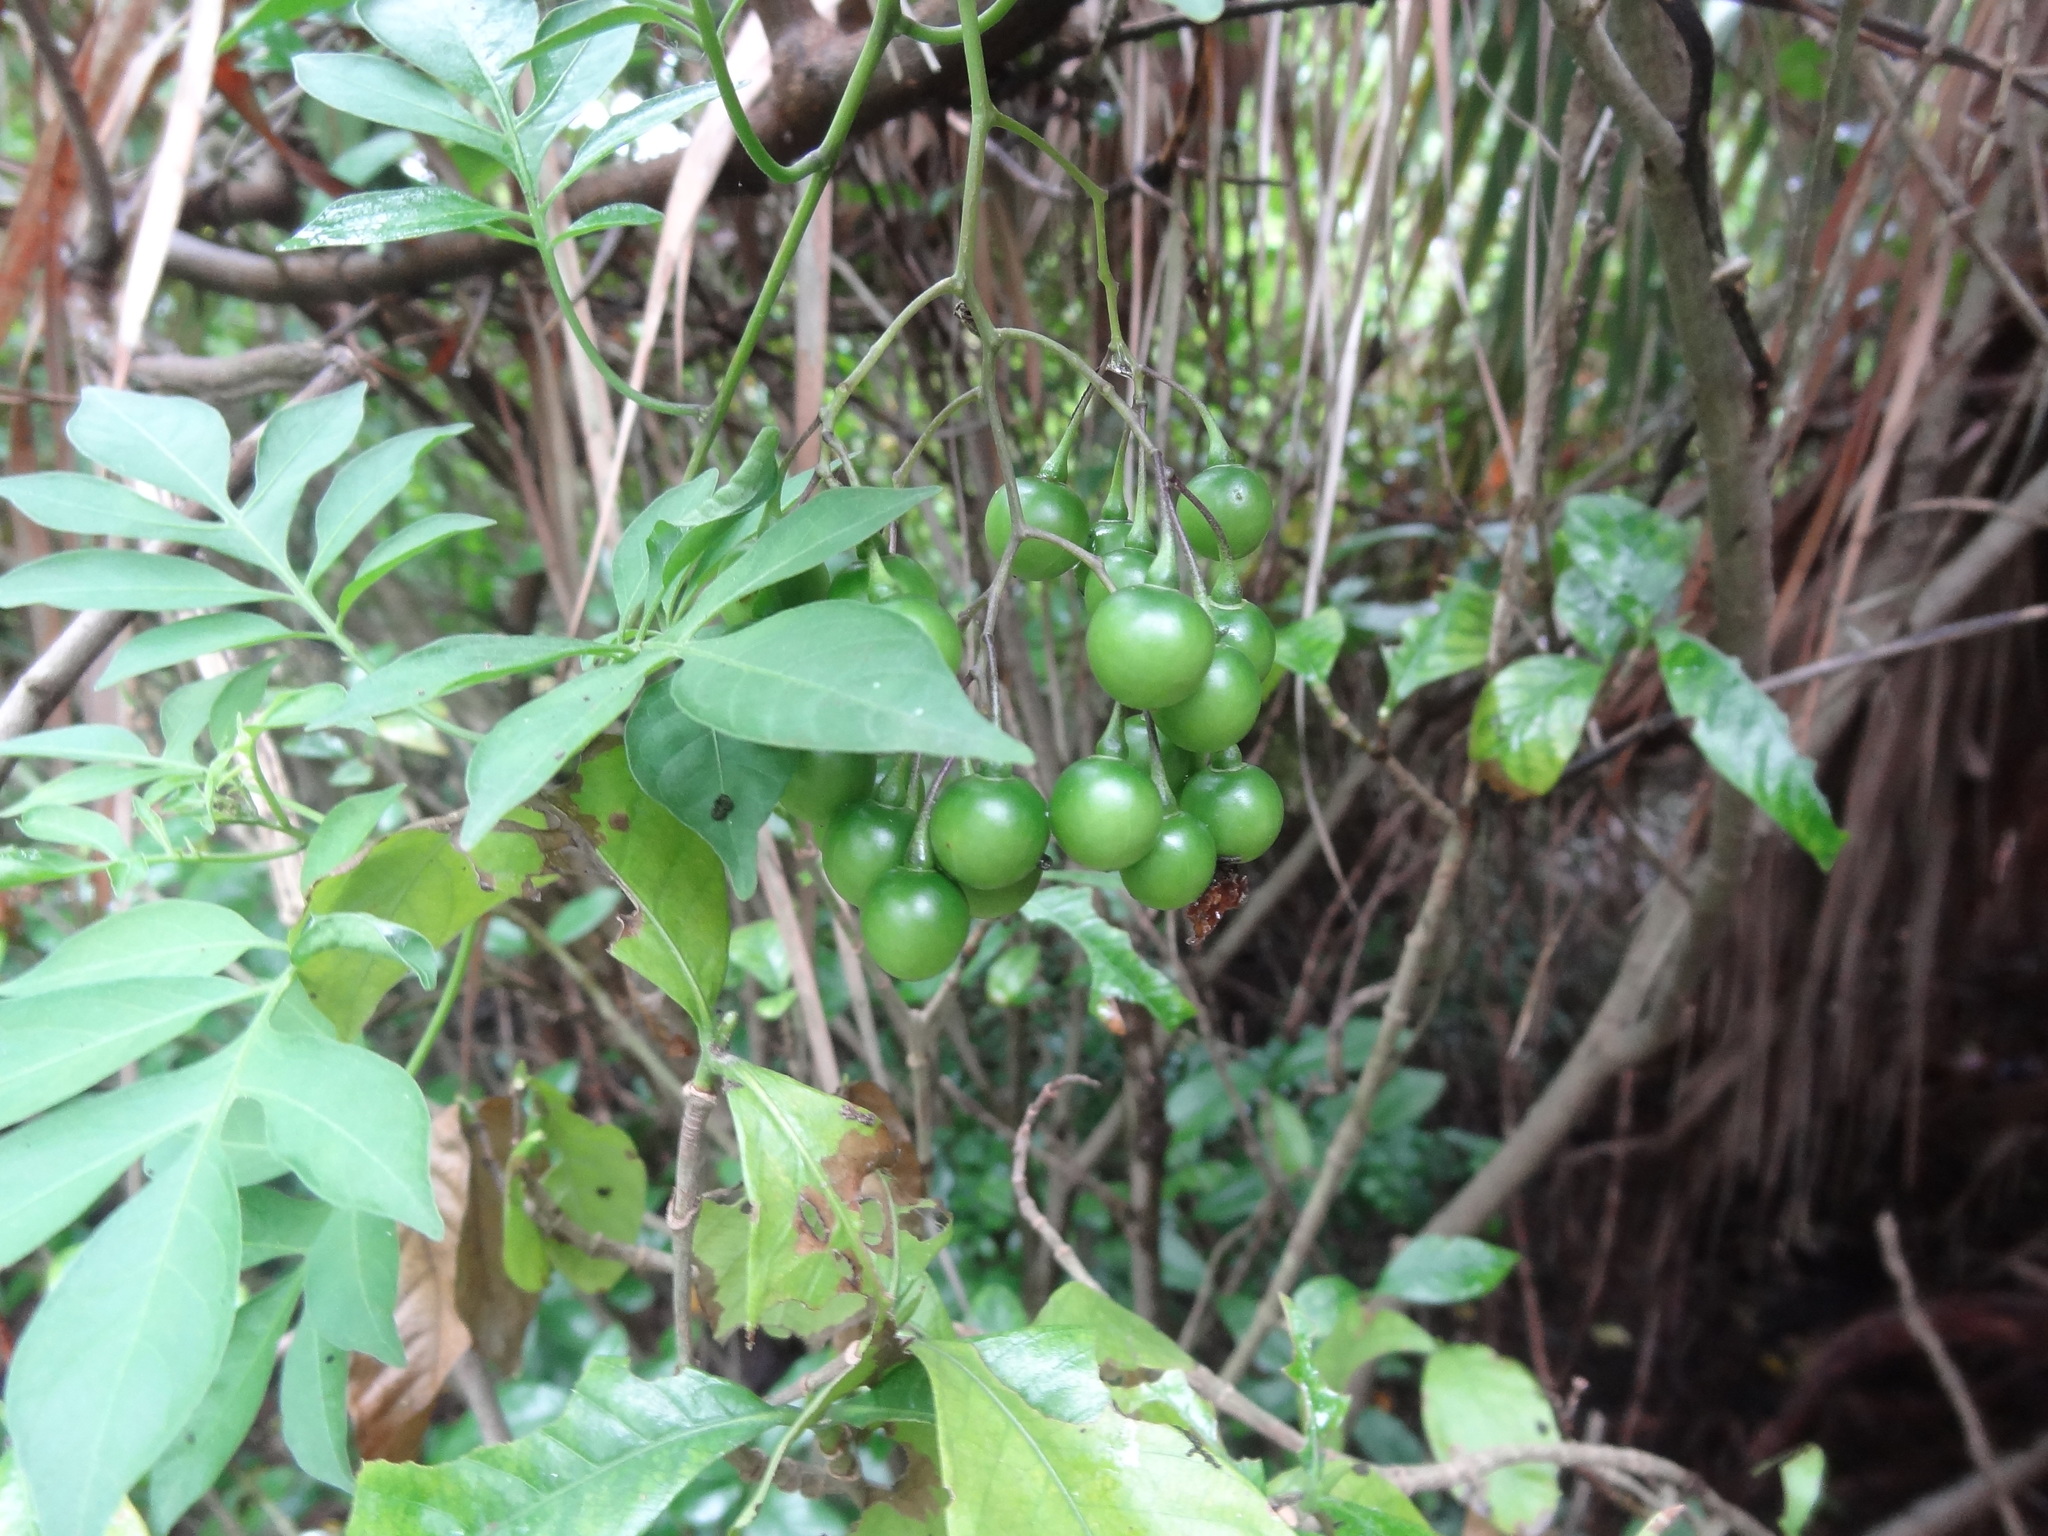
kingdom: Plantae
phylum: Tracheophyta
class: Magnoliopsida
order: Solanales
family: Solanaceae
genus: Solanum
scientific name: Solanum seaforthianum
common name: Brazilian nightshade
